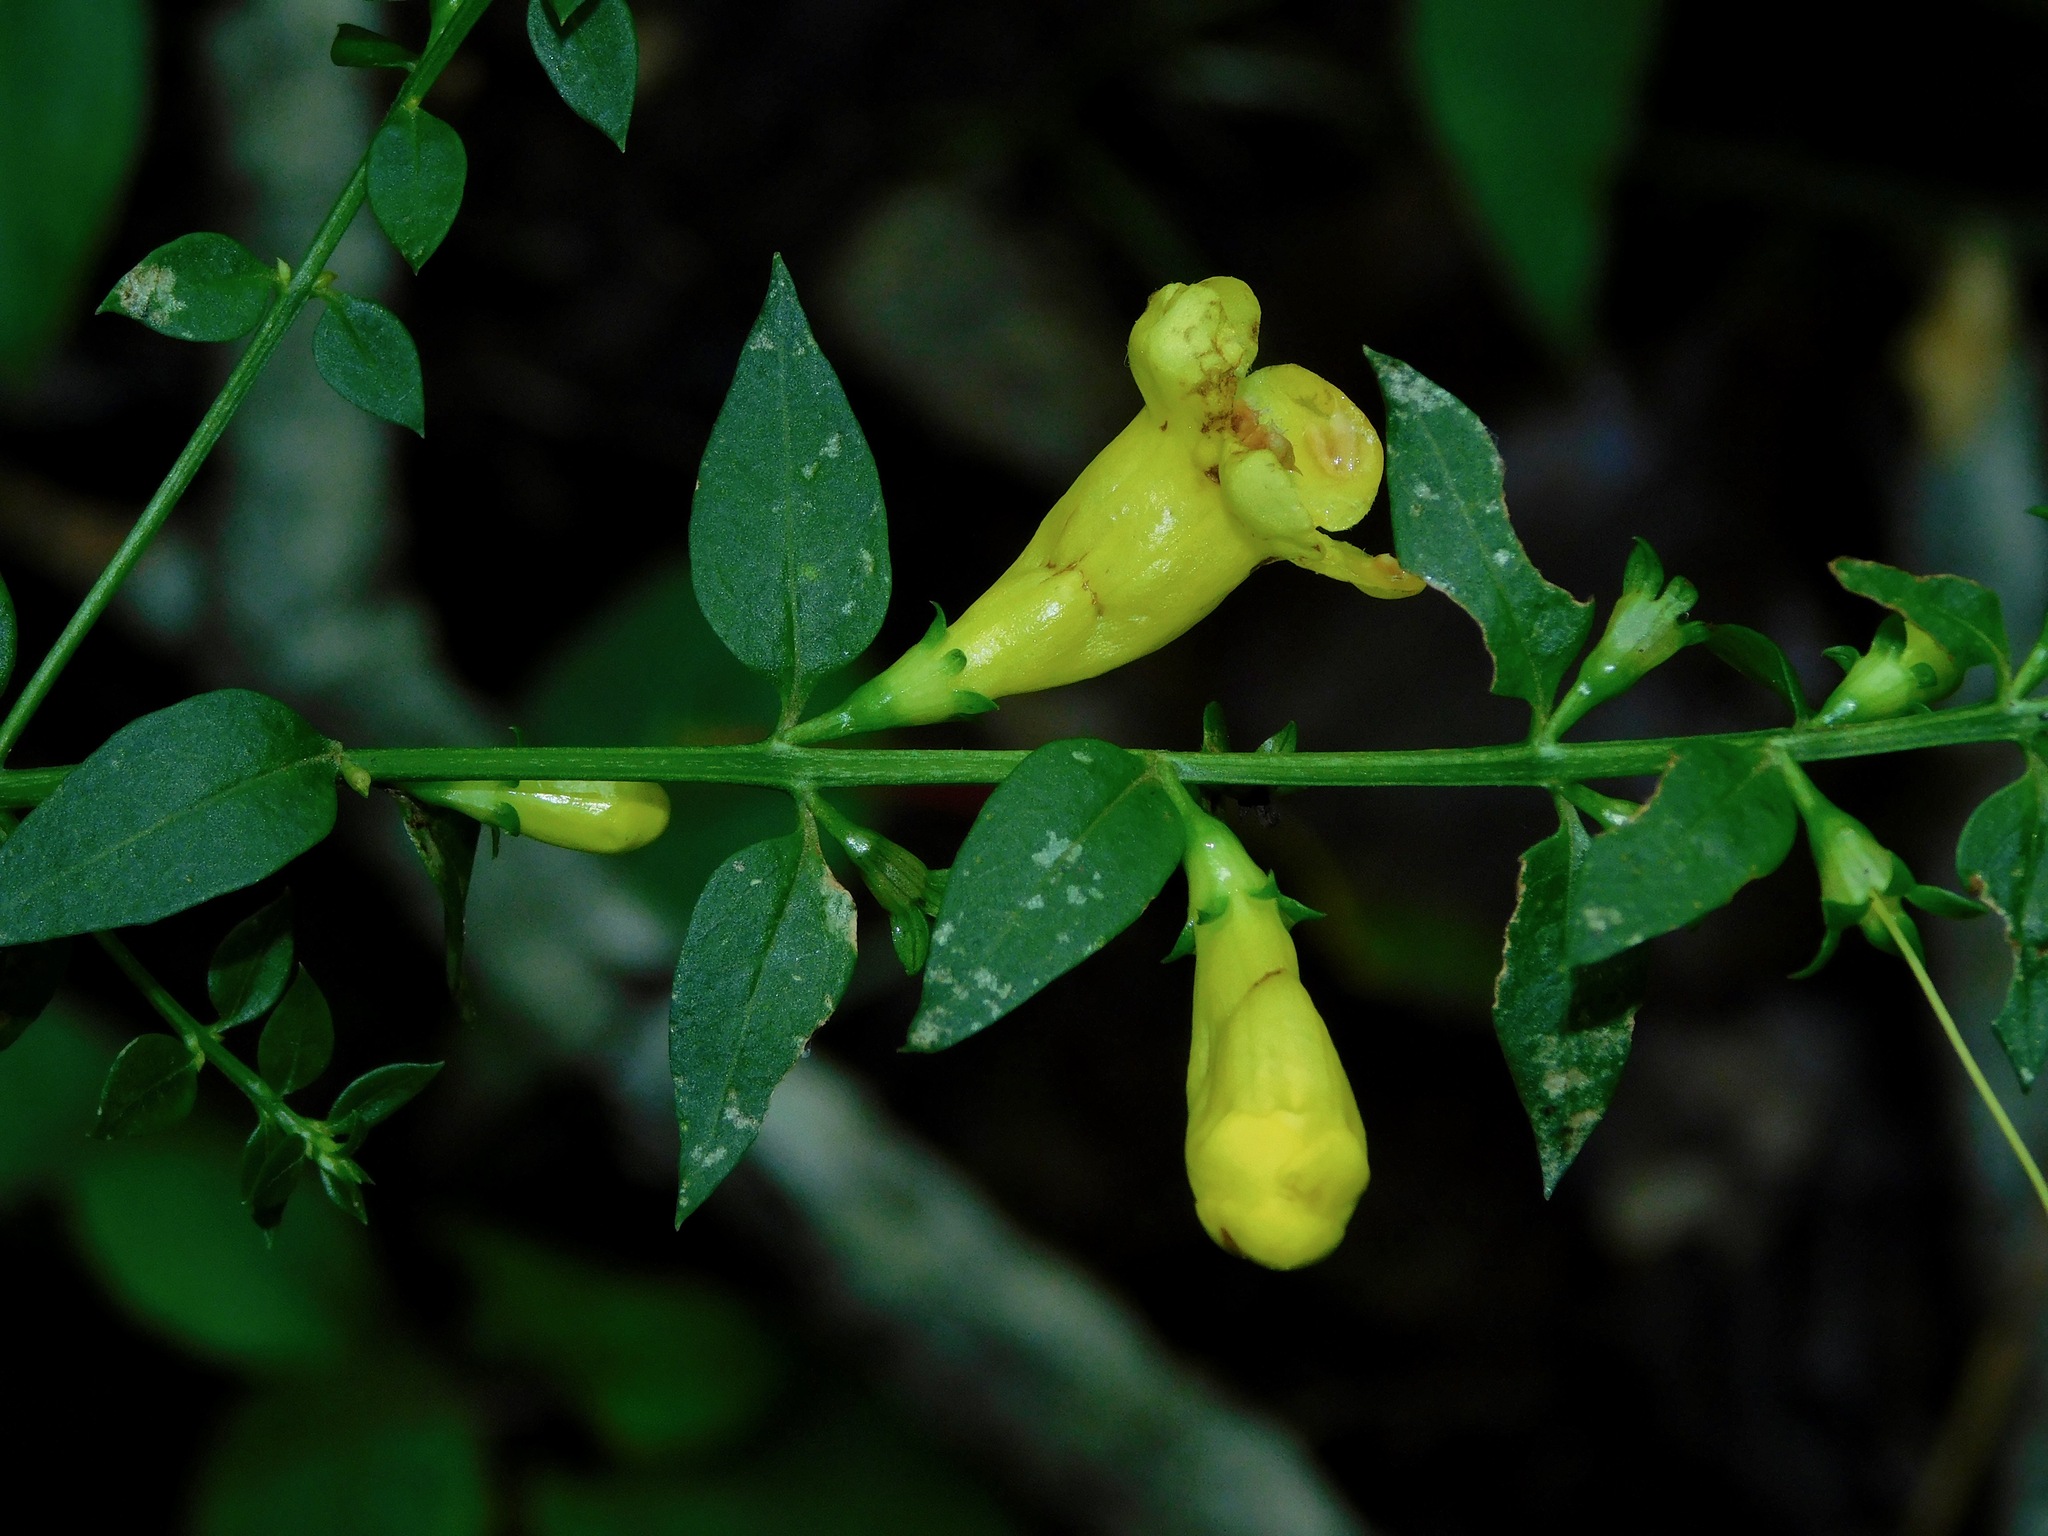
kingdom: Plantae
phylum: Tracheophyta
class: Magnoliopsida
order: Lamiales
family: Orobanchaceae
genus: Aureolaria
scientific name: Aureolaria virginica
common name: Downy false foxglove
